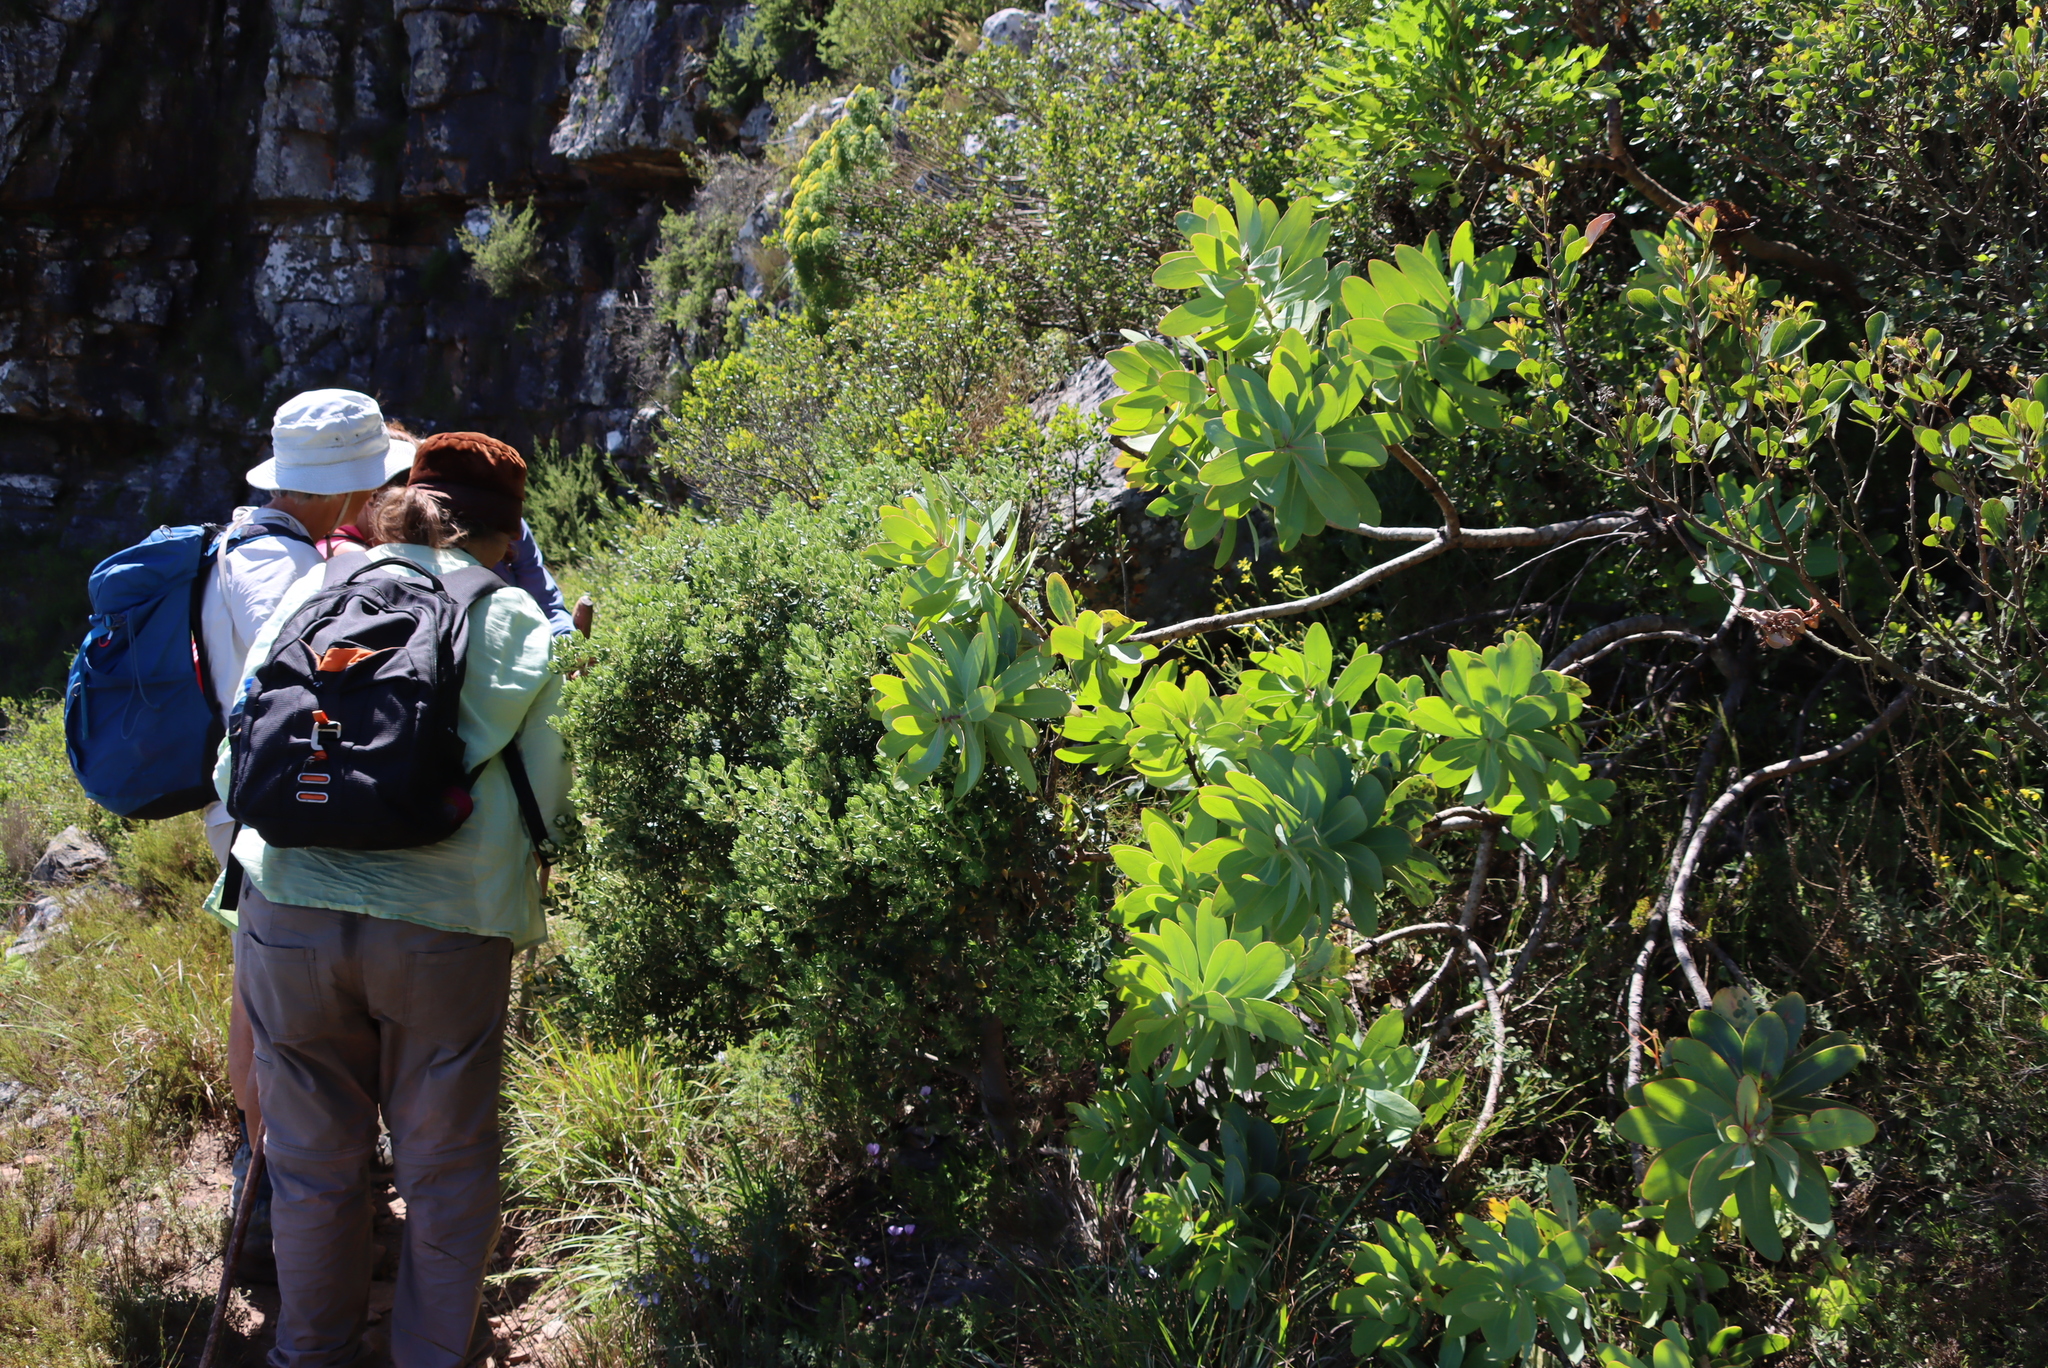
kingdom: Plantae
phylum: Tracheophyta
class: Magnoliopsida
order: Proteales
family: Proteaceae
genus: Protea
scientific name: Protea nitida
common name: Tree protea
